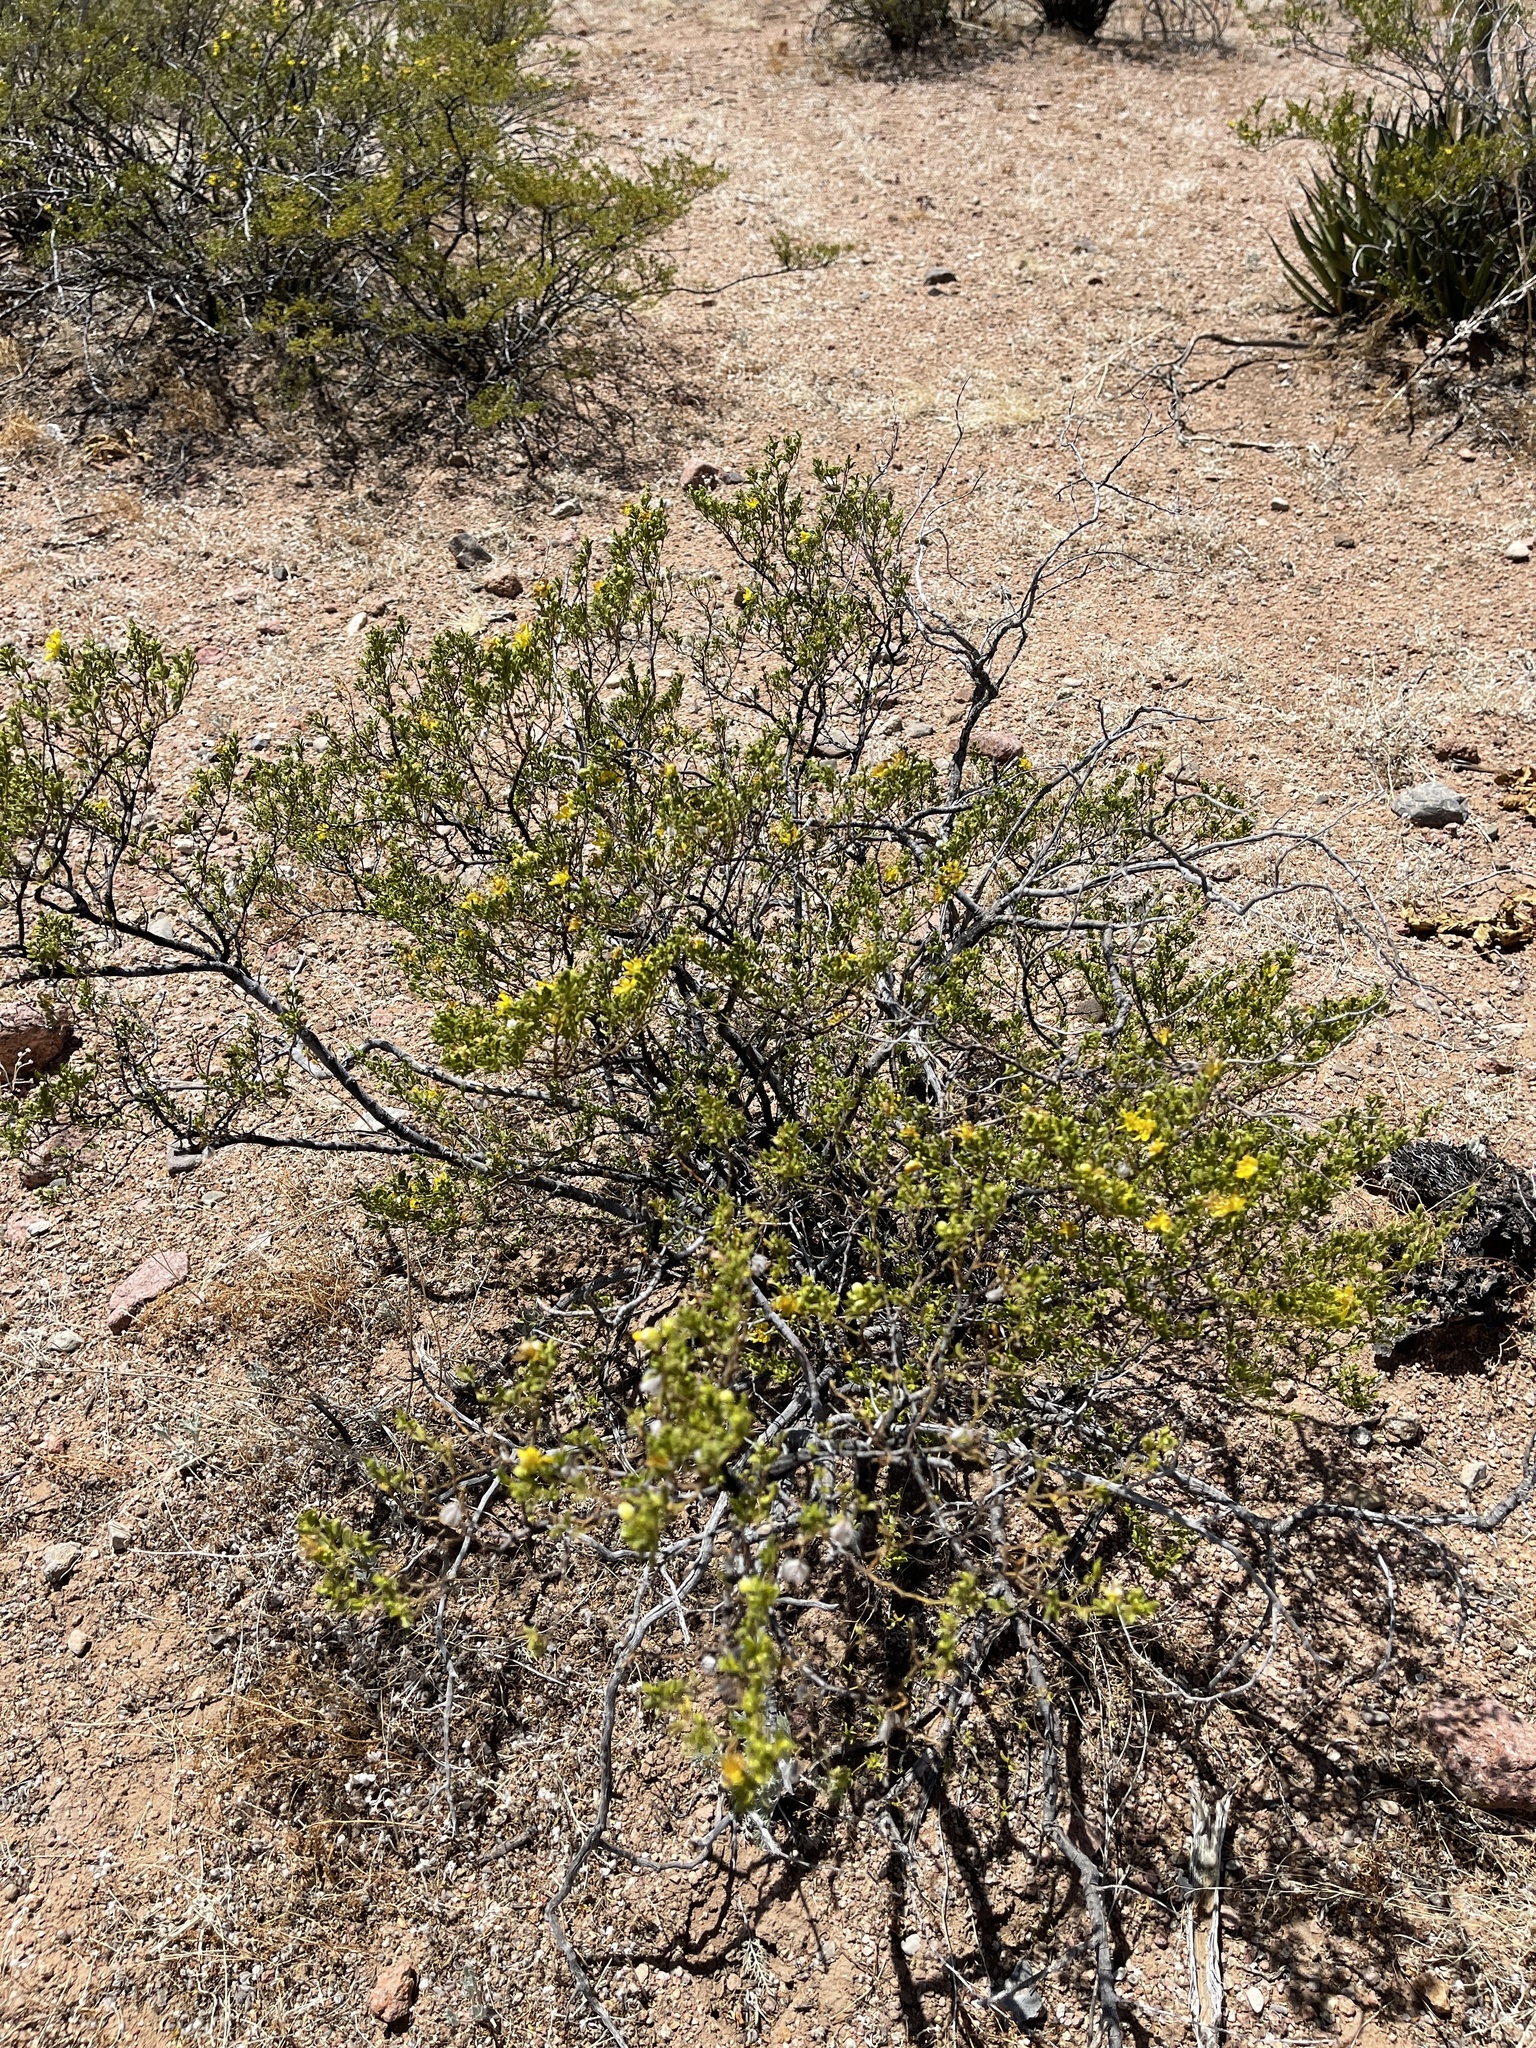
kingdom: Plantae
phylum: Tracheophyta
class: Magnoliopsida
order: Zygophyllales
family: Zygophyllaceae
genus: Larrea
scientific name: Larrea tridentata
